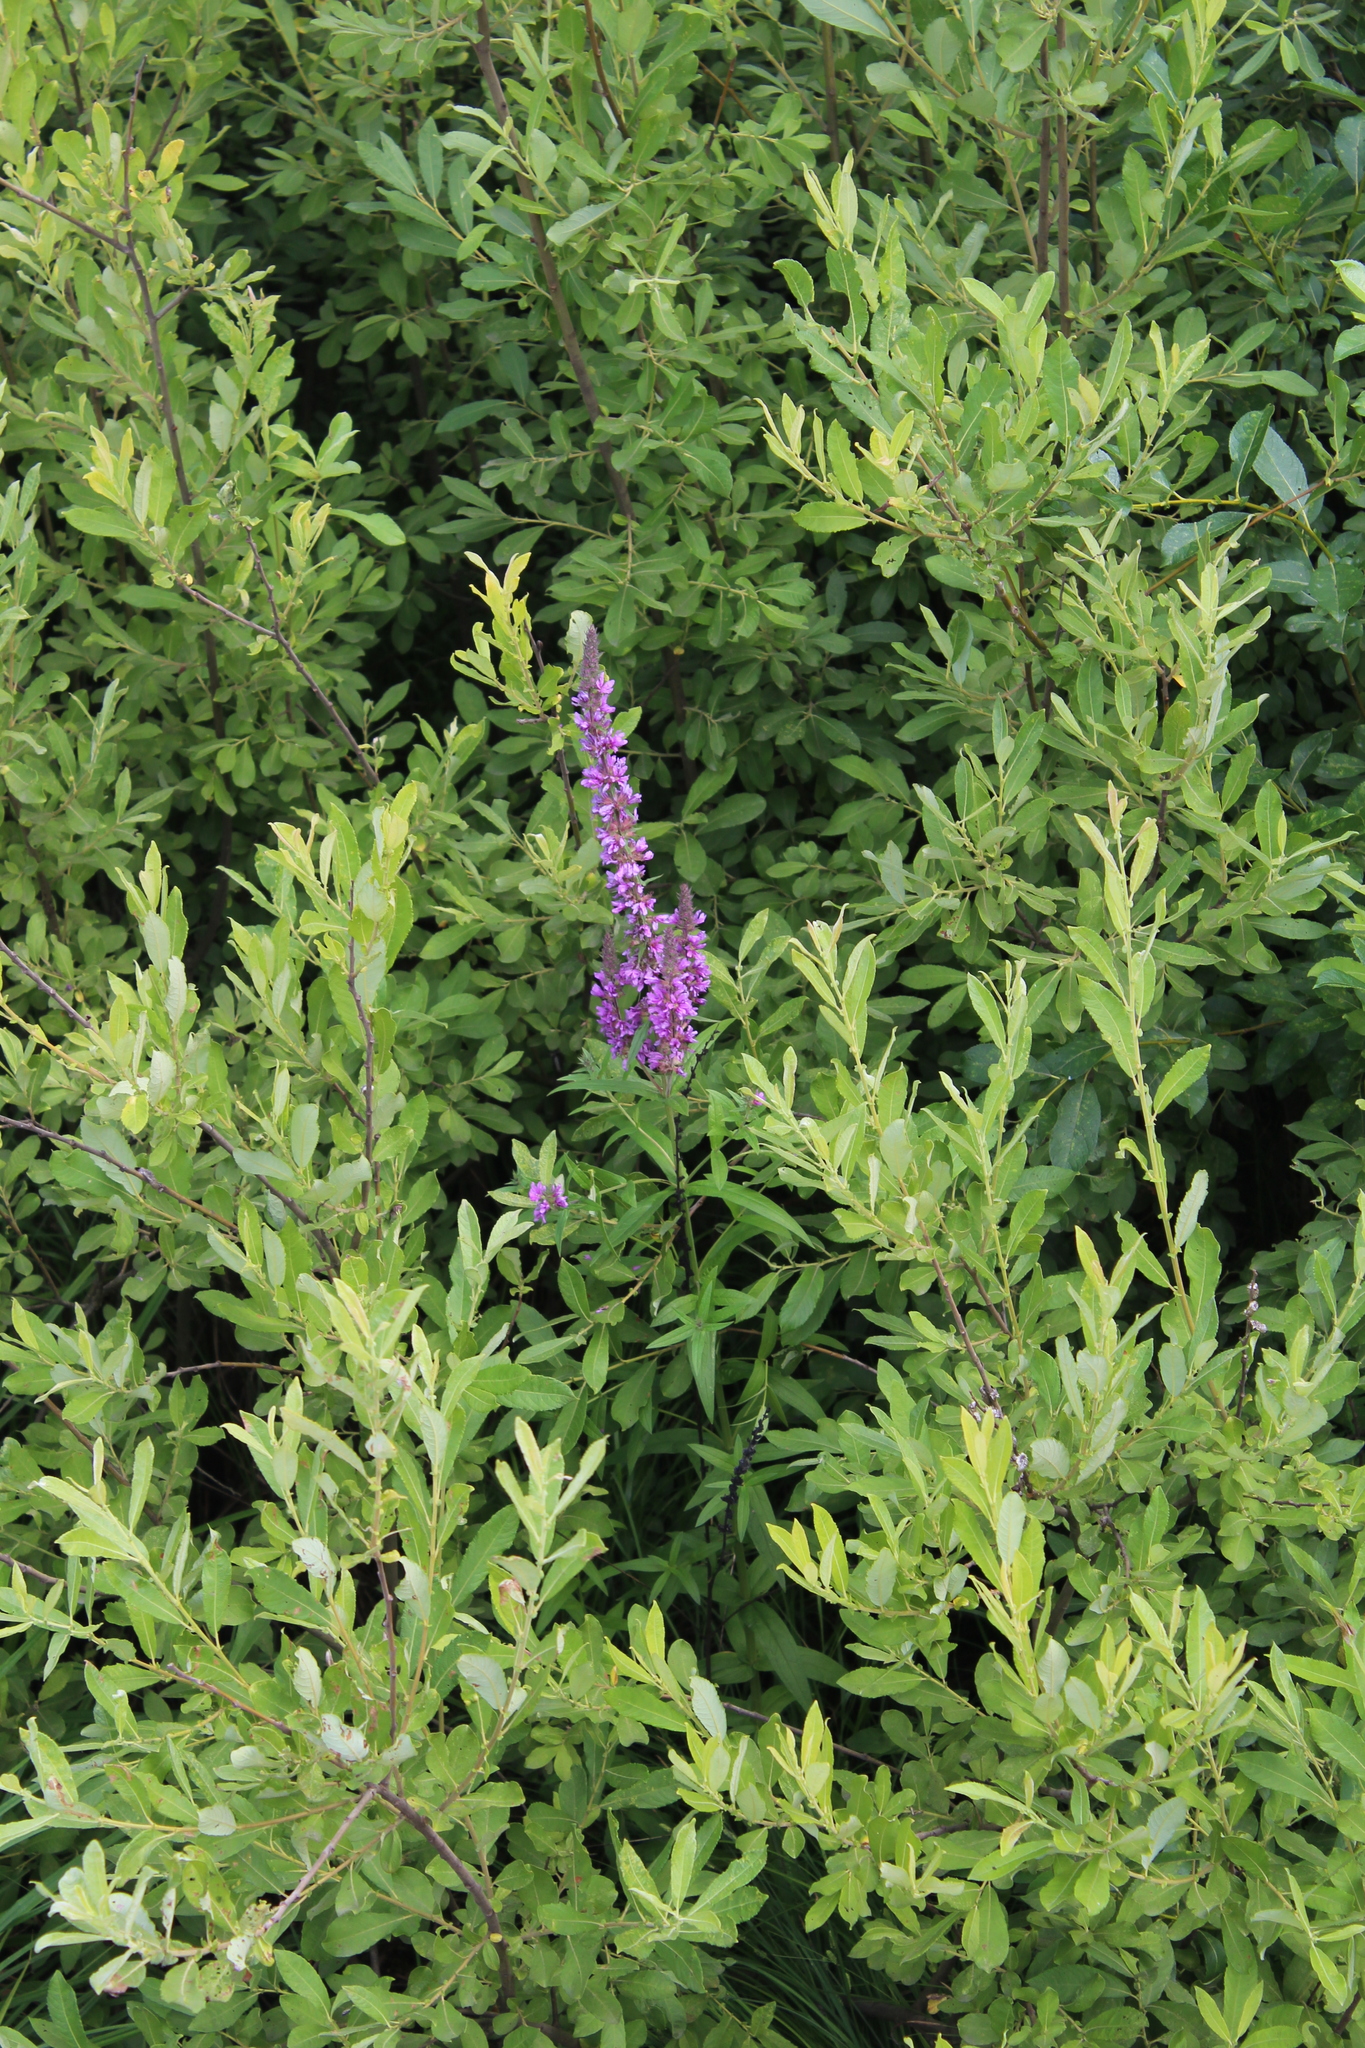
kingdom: Plantae
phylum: Tracheophyta
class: Magnoliopsida
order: Myrtales
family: Lythraceae
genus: Lythrum
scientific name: Lythrum salicaria
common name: Purple loosestrife
